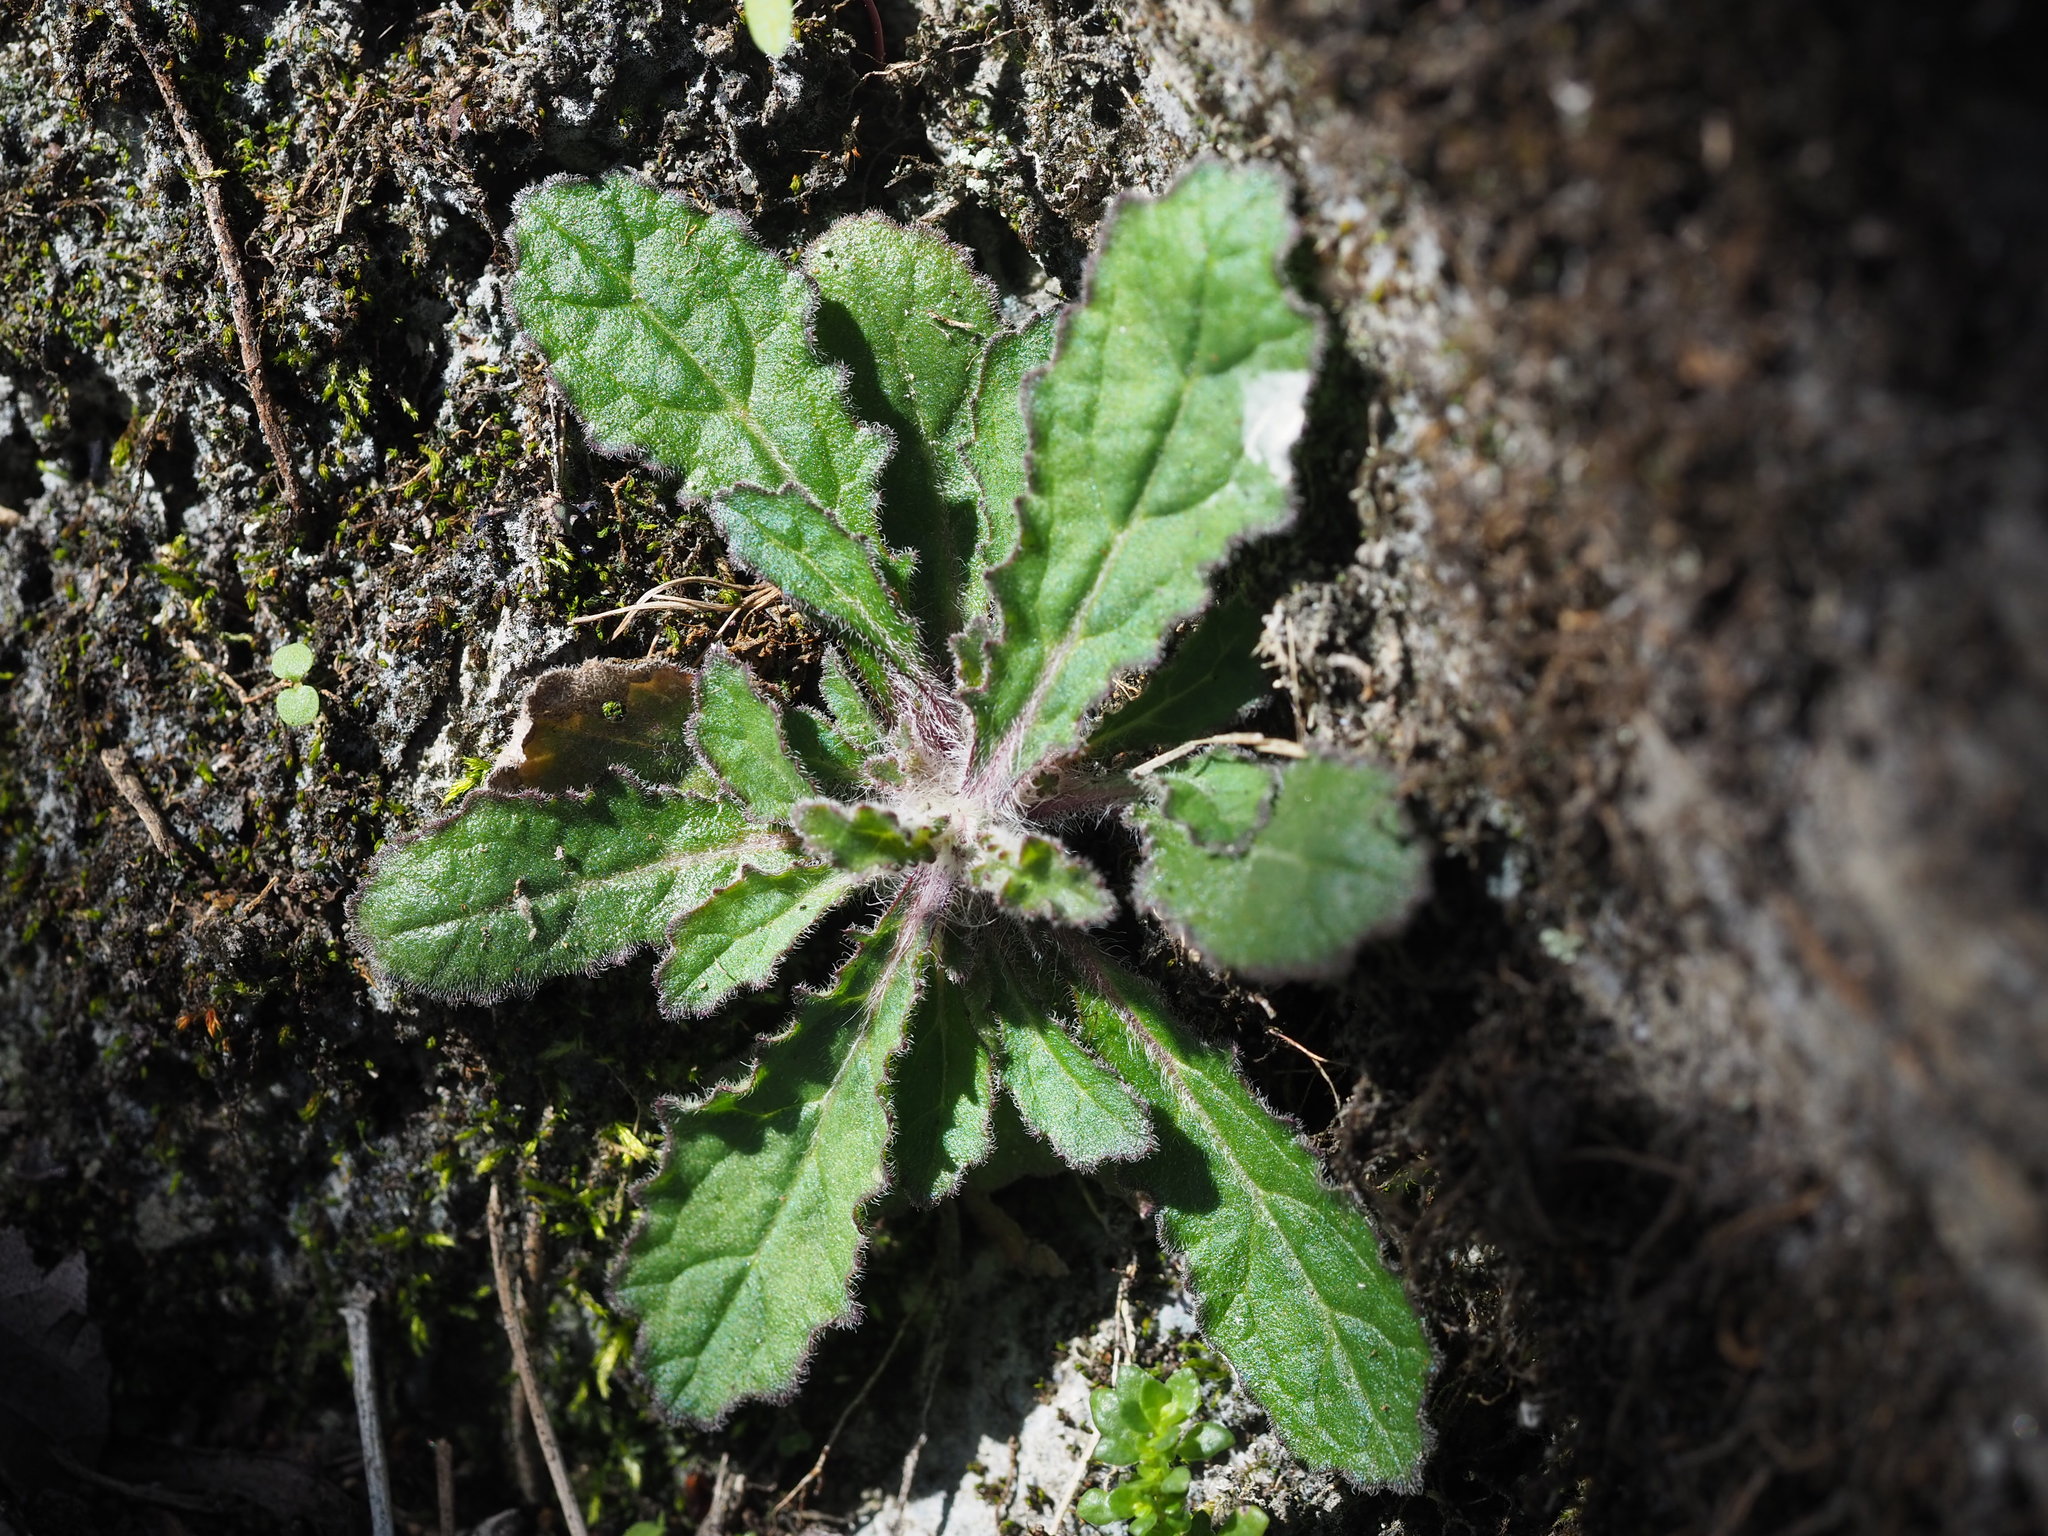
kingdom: Plantae
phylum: Tracheophyta
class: Magnoliopsida
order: Lamiales
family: Lamiaceae
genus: Ajuga
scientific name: Ajuga taiwanensis
